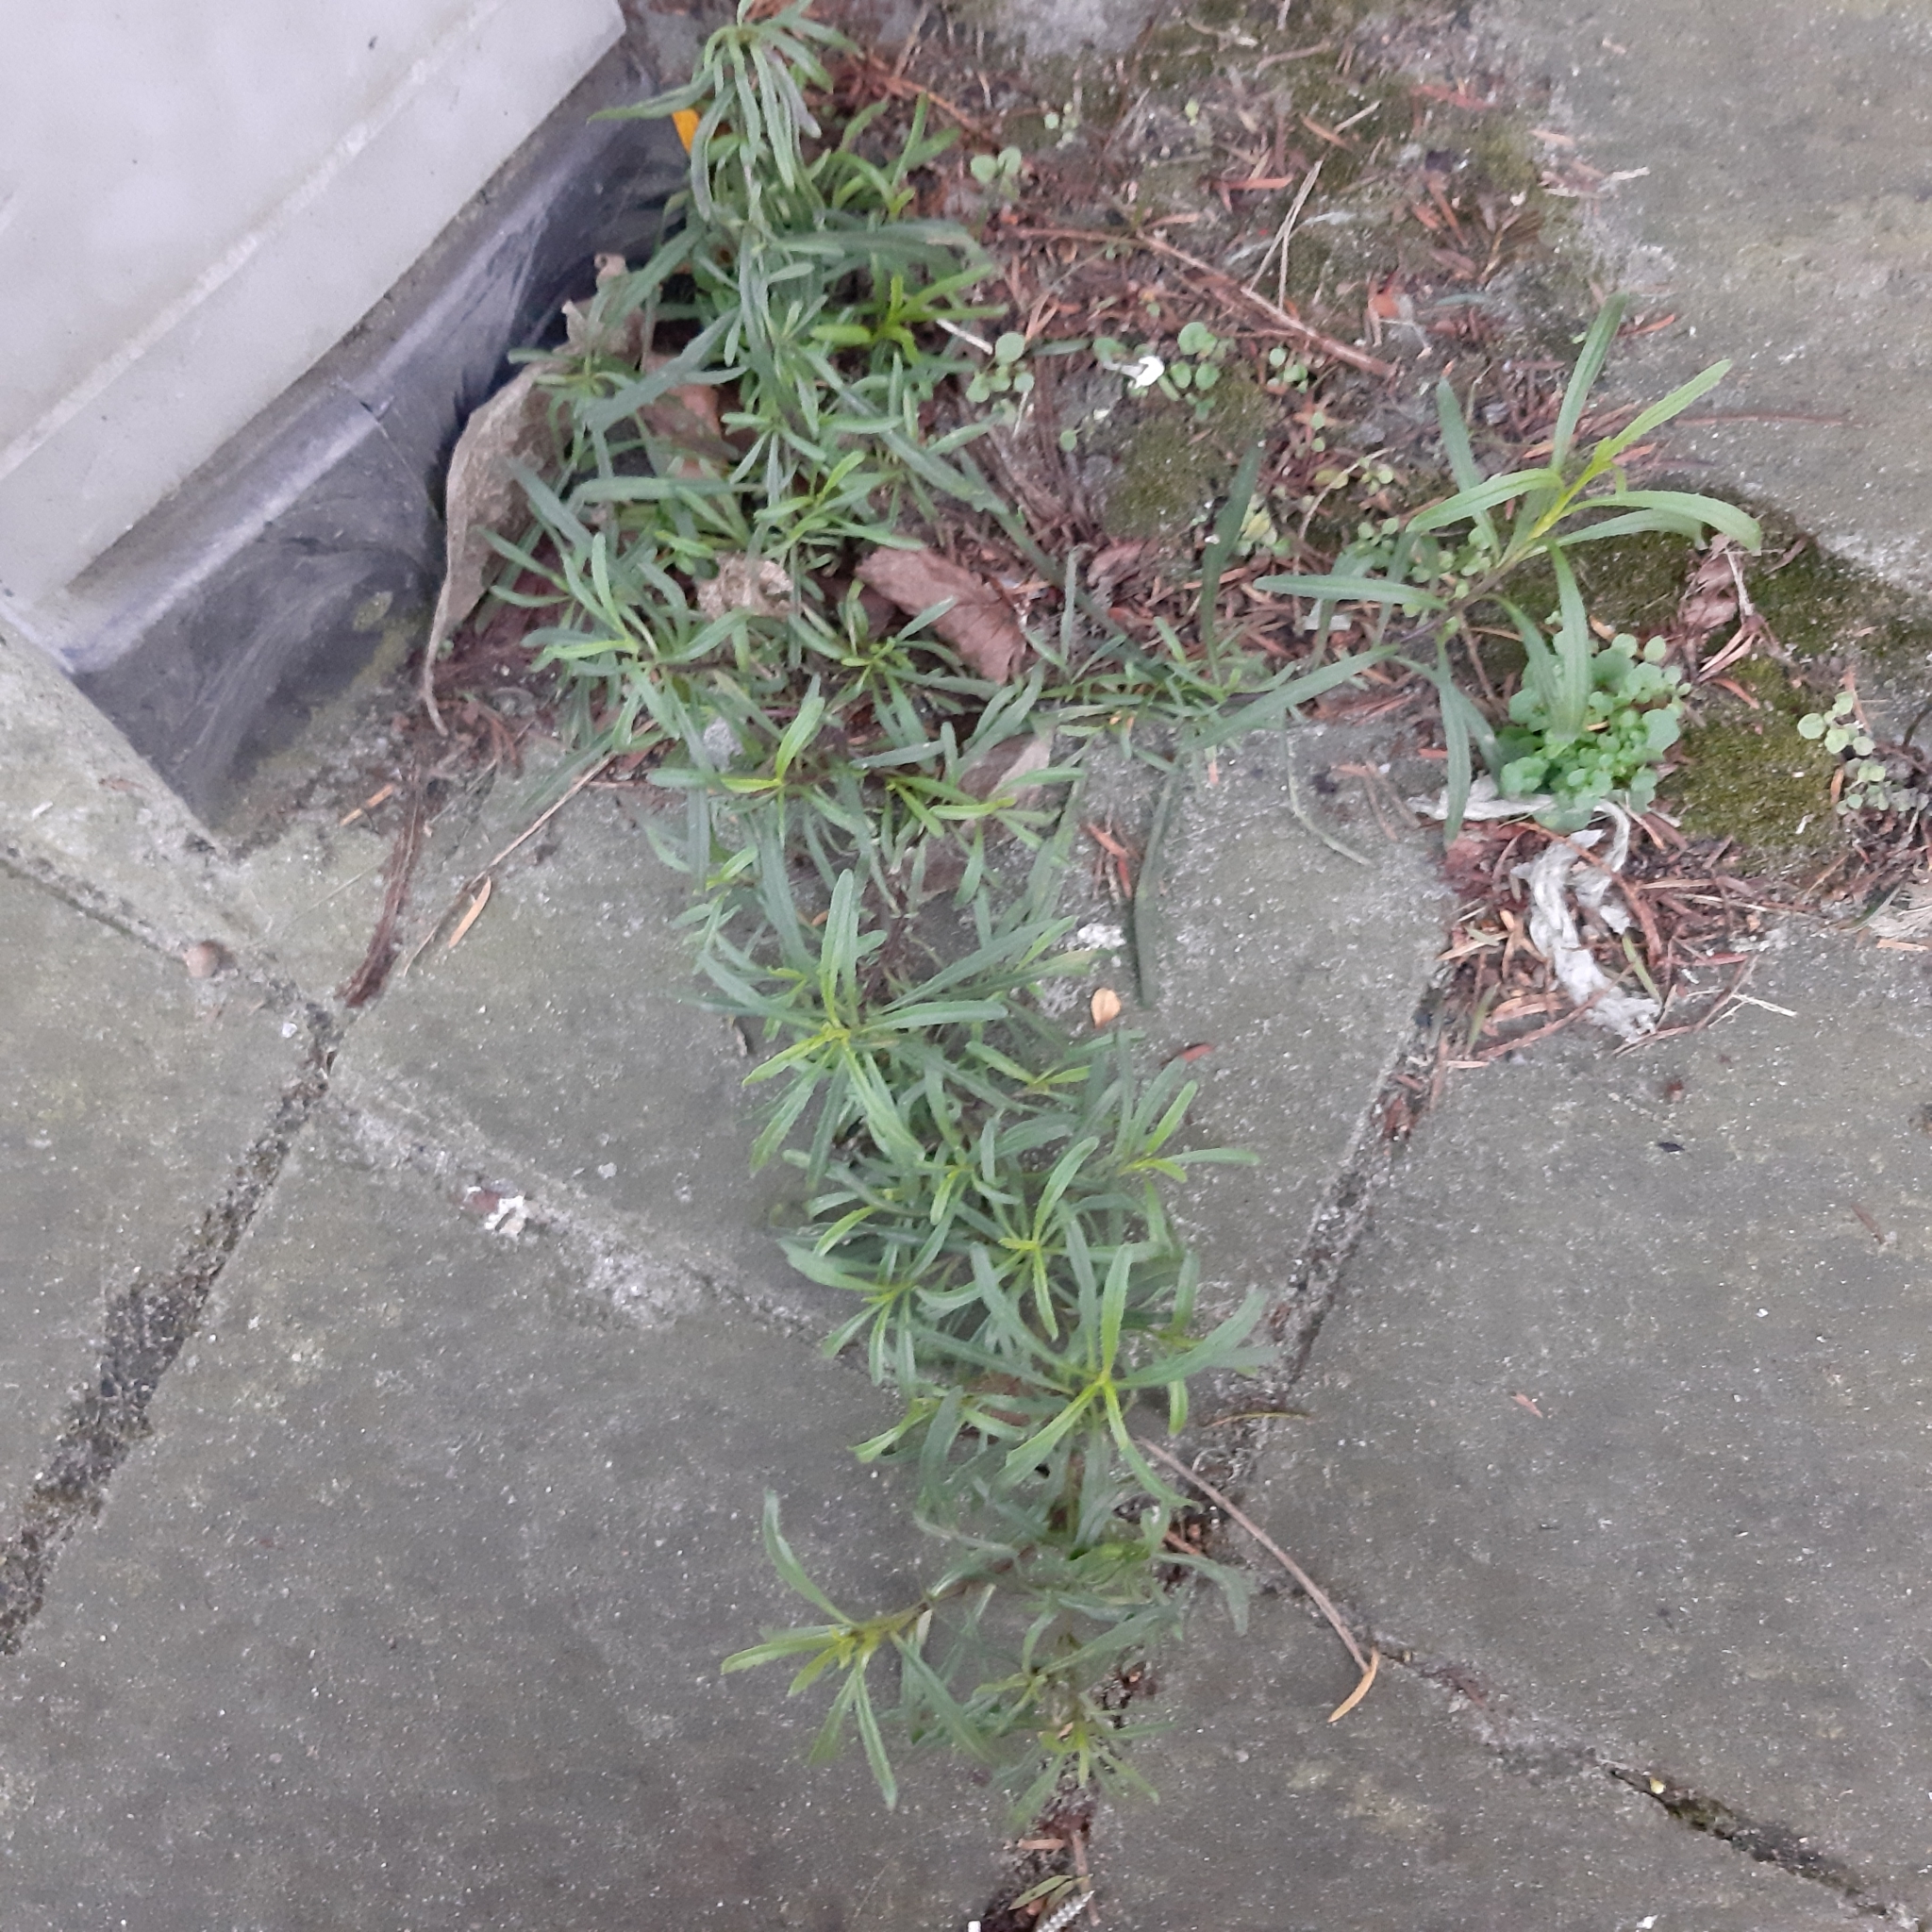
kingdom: Plantae
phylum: Tracheophyta
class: Magnoliopsida
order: Asterales
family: Asteraceae
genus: Senecio
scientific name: Senecio inaequidens
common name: Narrow-leaved ragwort
